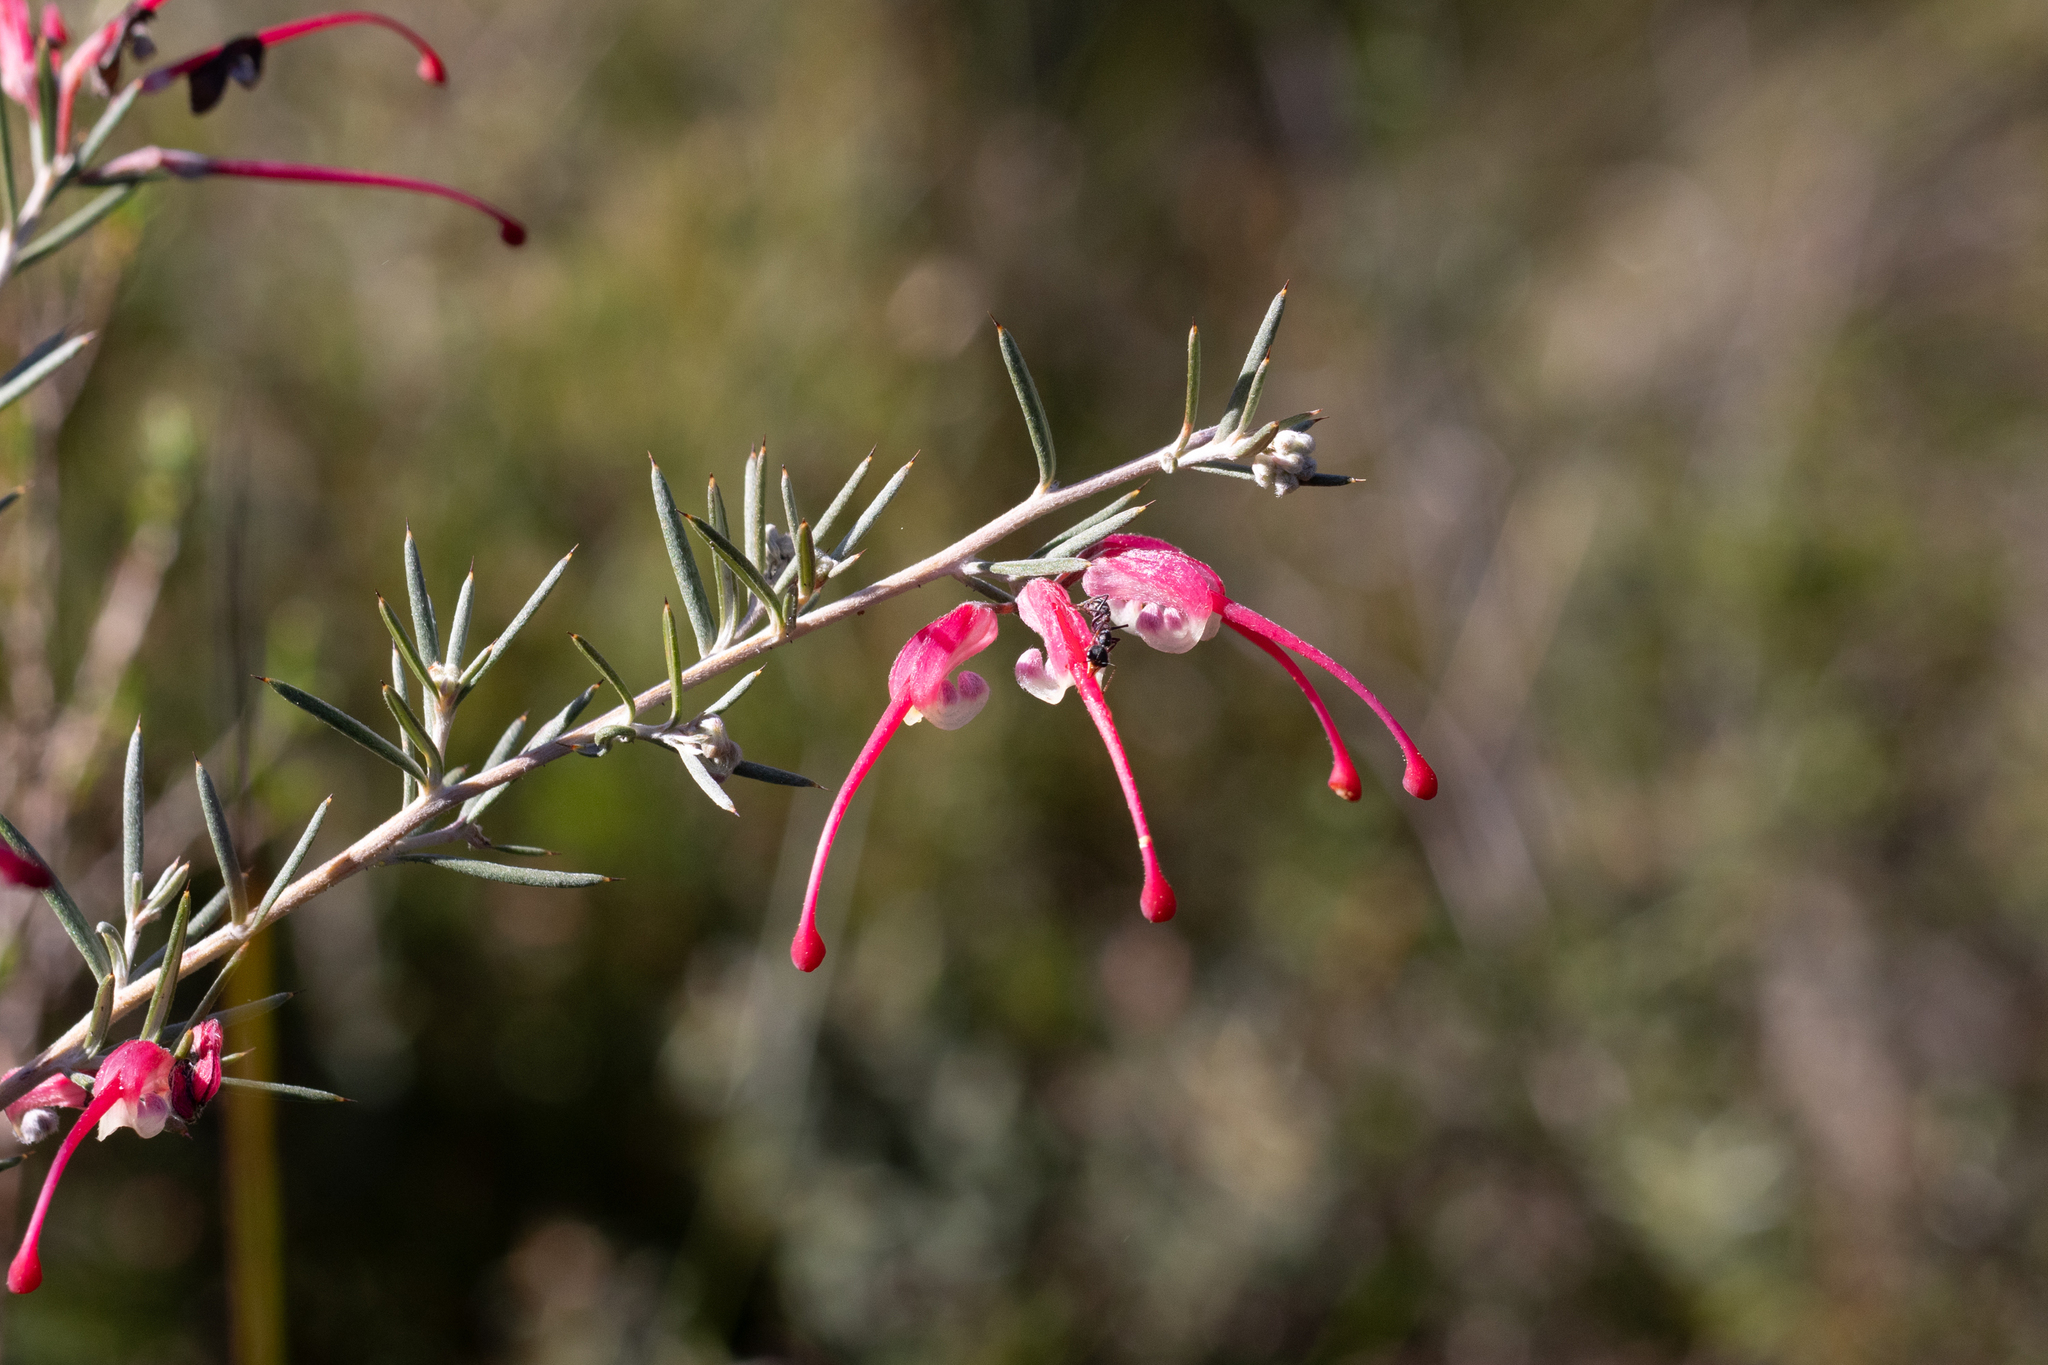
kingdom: Plantae
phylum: Tracheophyta
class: Magnoliopsida
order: Proteales
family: Proteaceae
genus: Grevillea
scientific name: Grevillea lavandulacea
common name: Lavender grevillea
